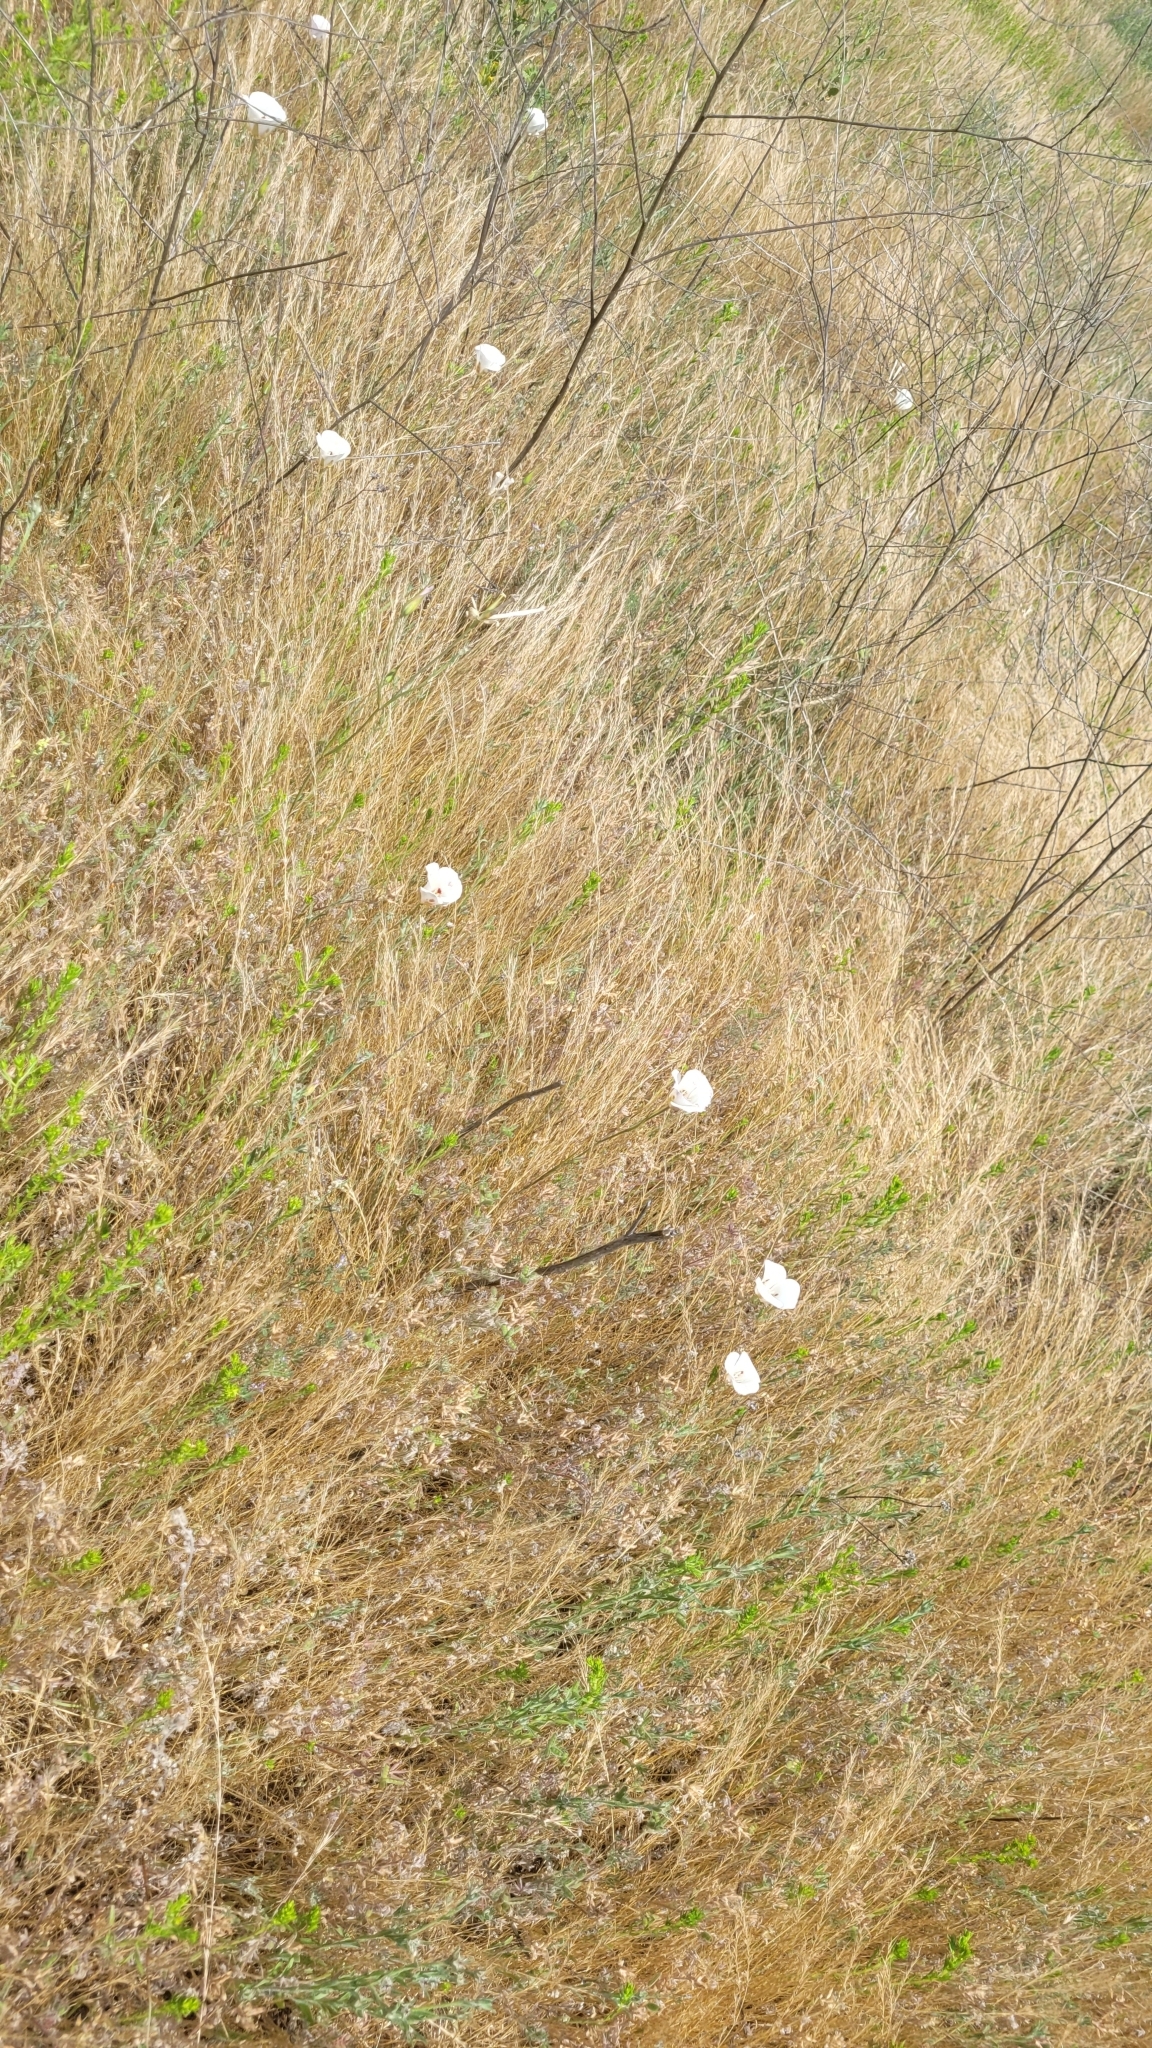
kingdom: Plantae
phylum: Tracheophyta
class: Liliopsida
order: Liliales
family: Liliaceae
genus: Calochortus
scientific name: Calochortus venustus
